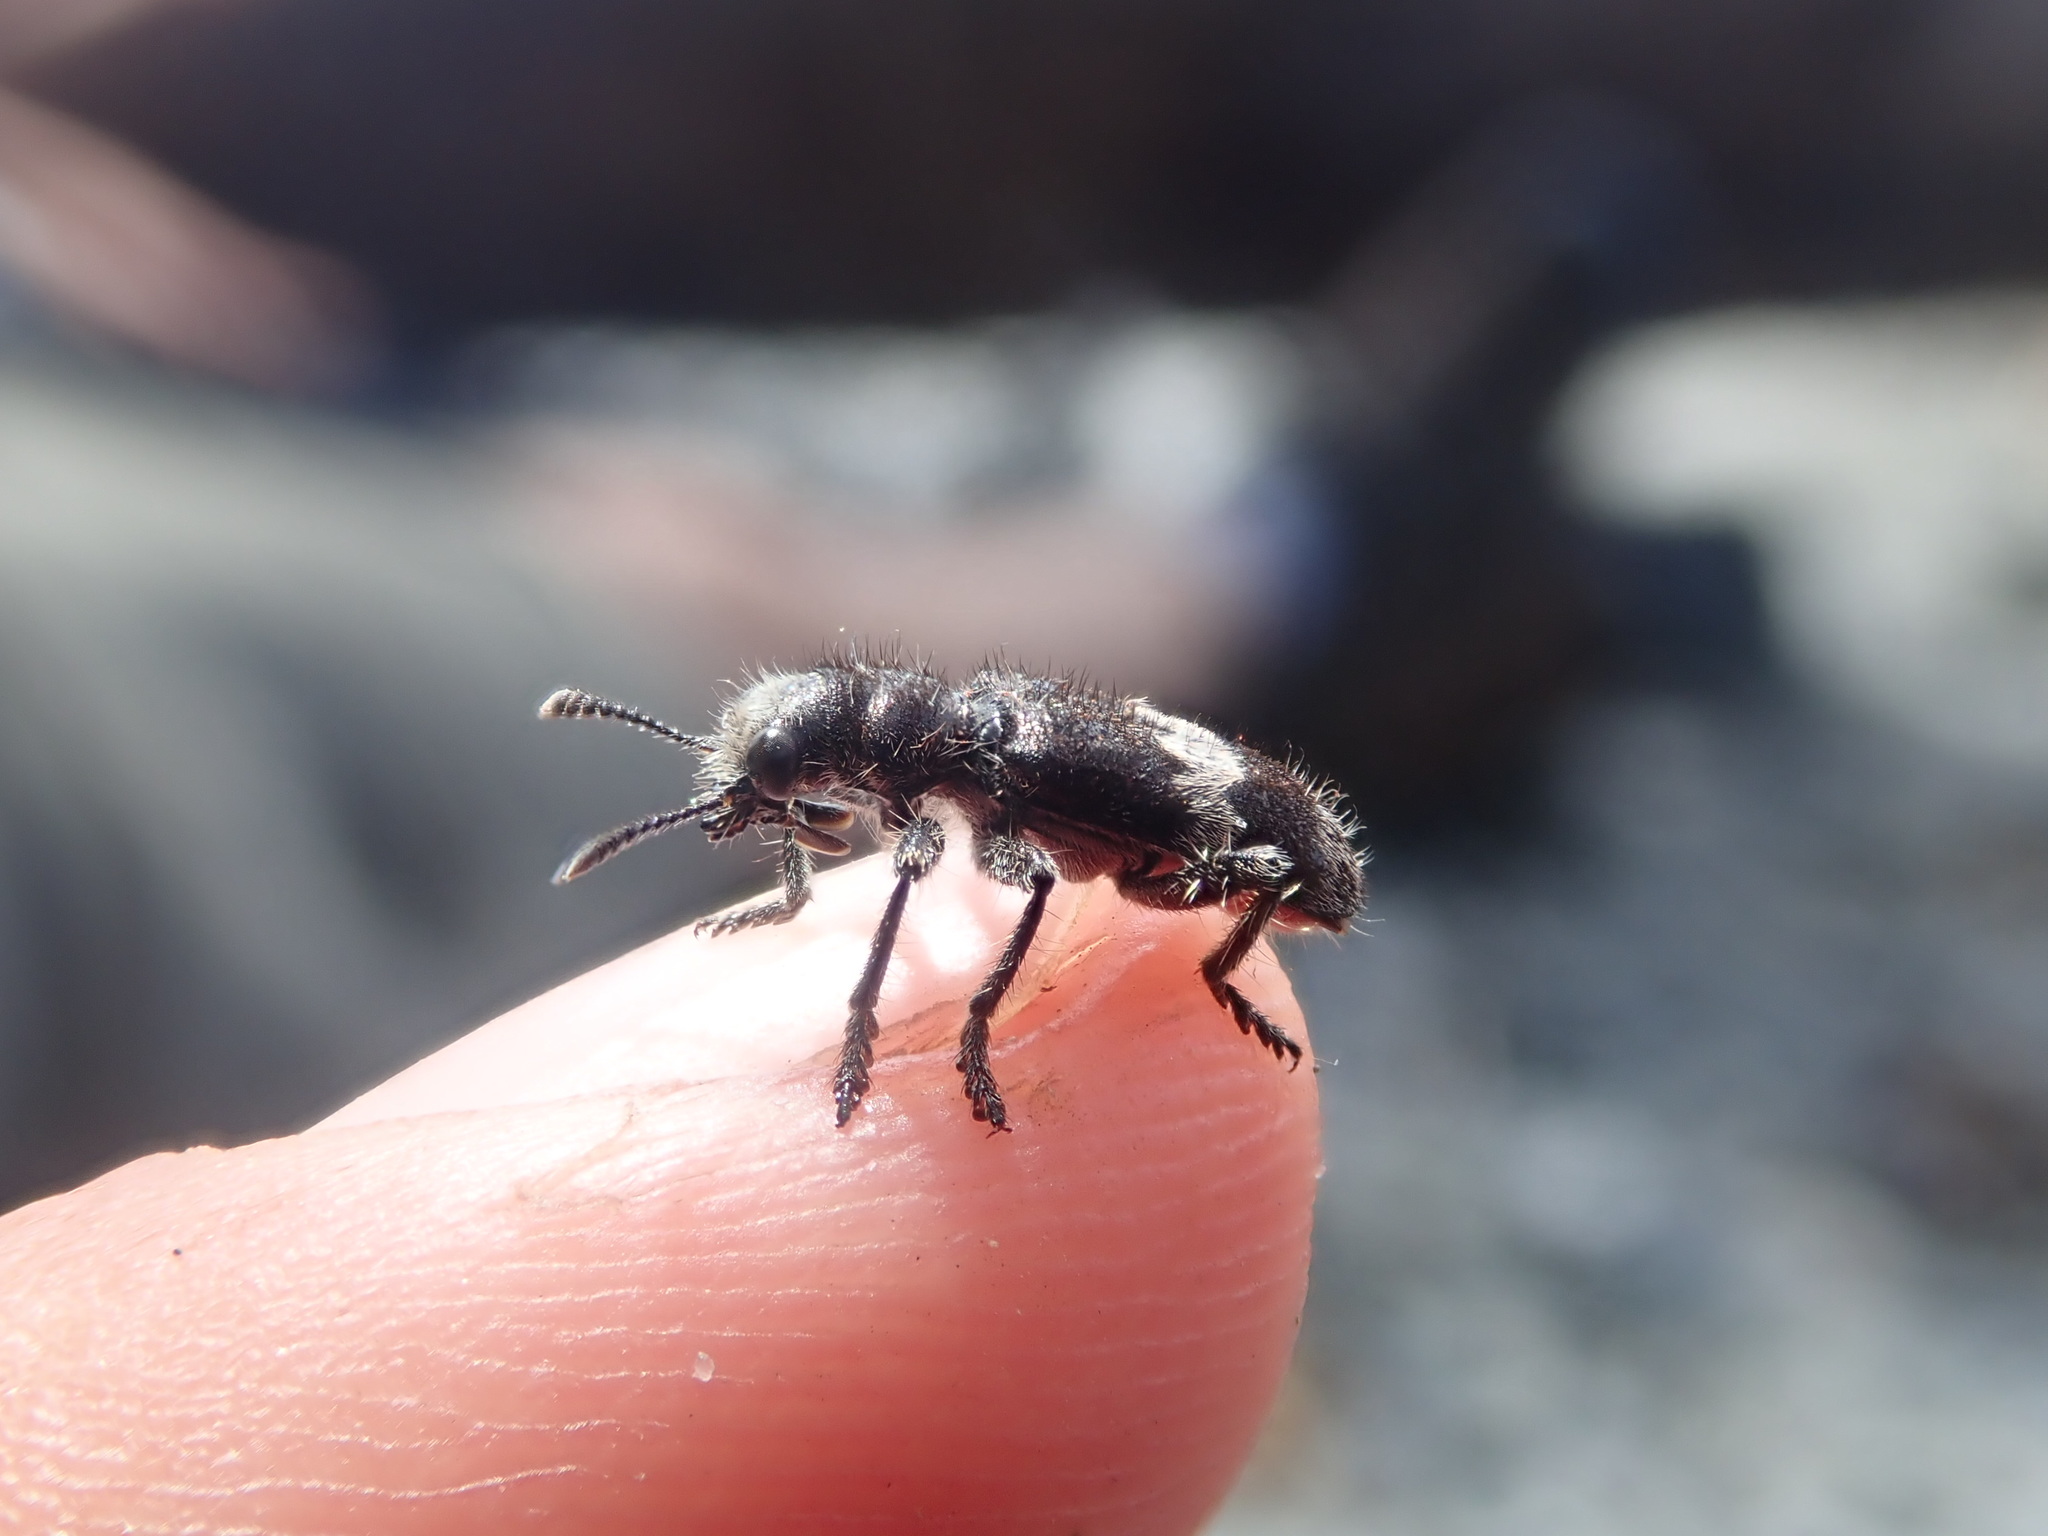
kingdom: Animalia
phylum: Arthropoda
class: Insecta
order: Coleoptera
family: Cleridae
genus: Enoclerus
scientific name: Enoclerus sphegeus
